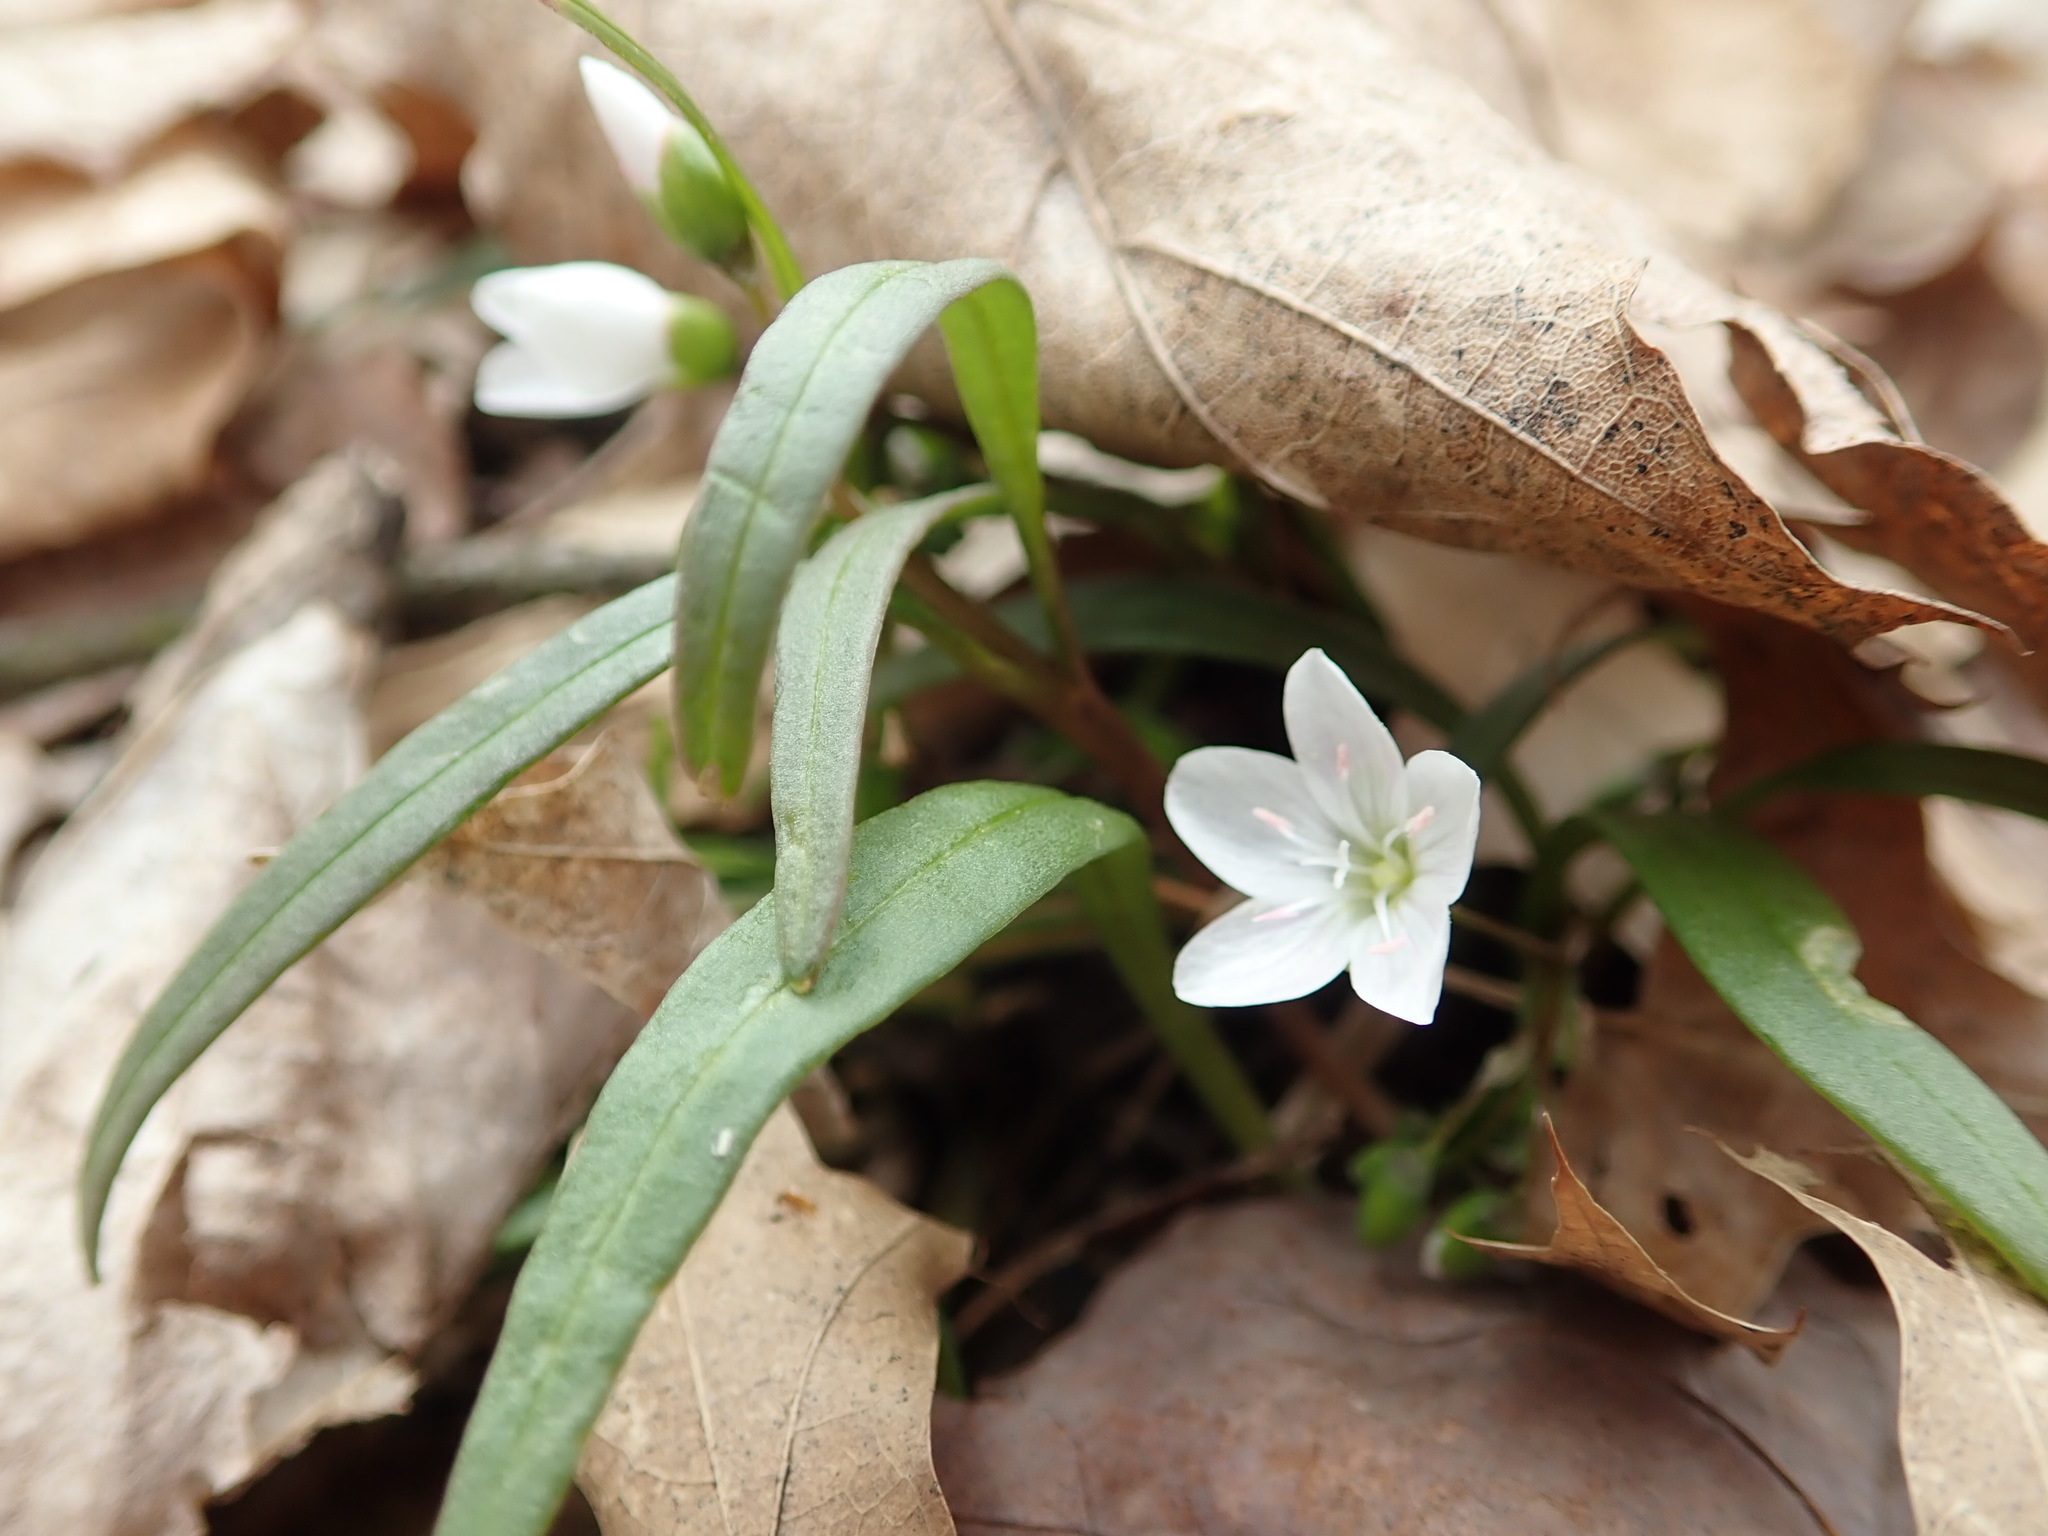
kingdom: Plantae
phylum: Tracheophyta
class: Magnoliopsida
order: Caryophyllales
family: Montiaceae
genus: Claytonia
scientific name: Claytonia virginica
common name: Virginia springbeauty
